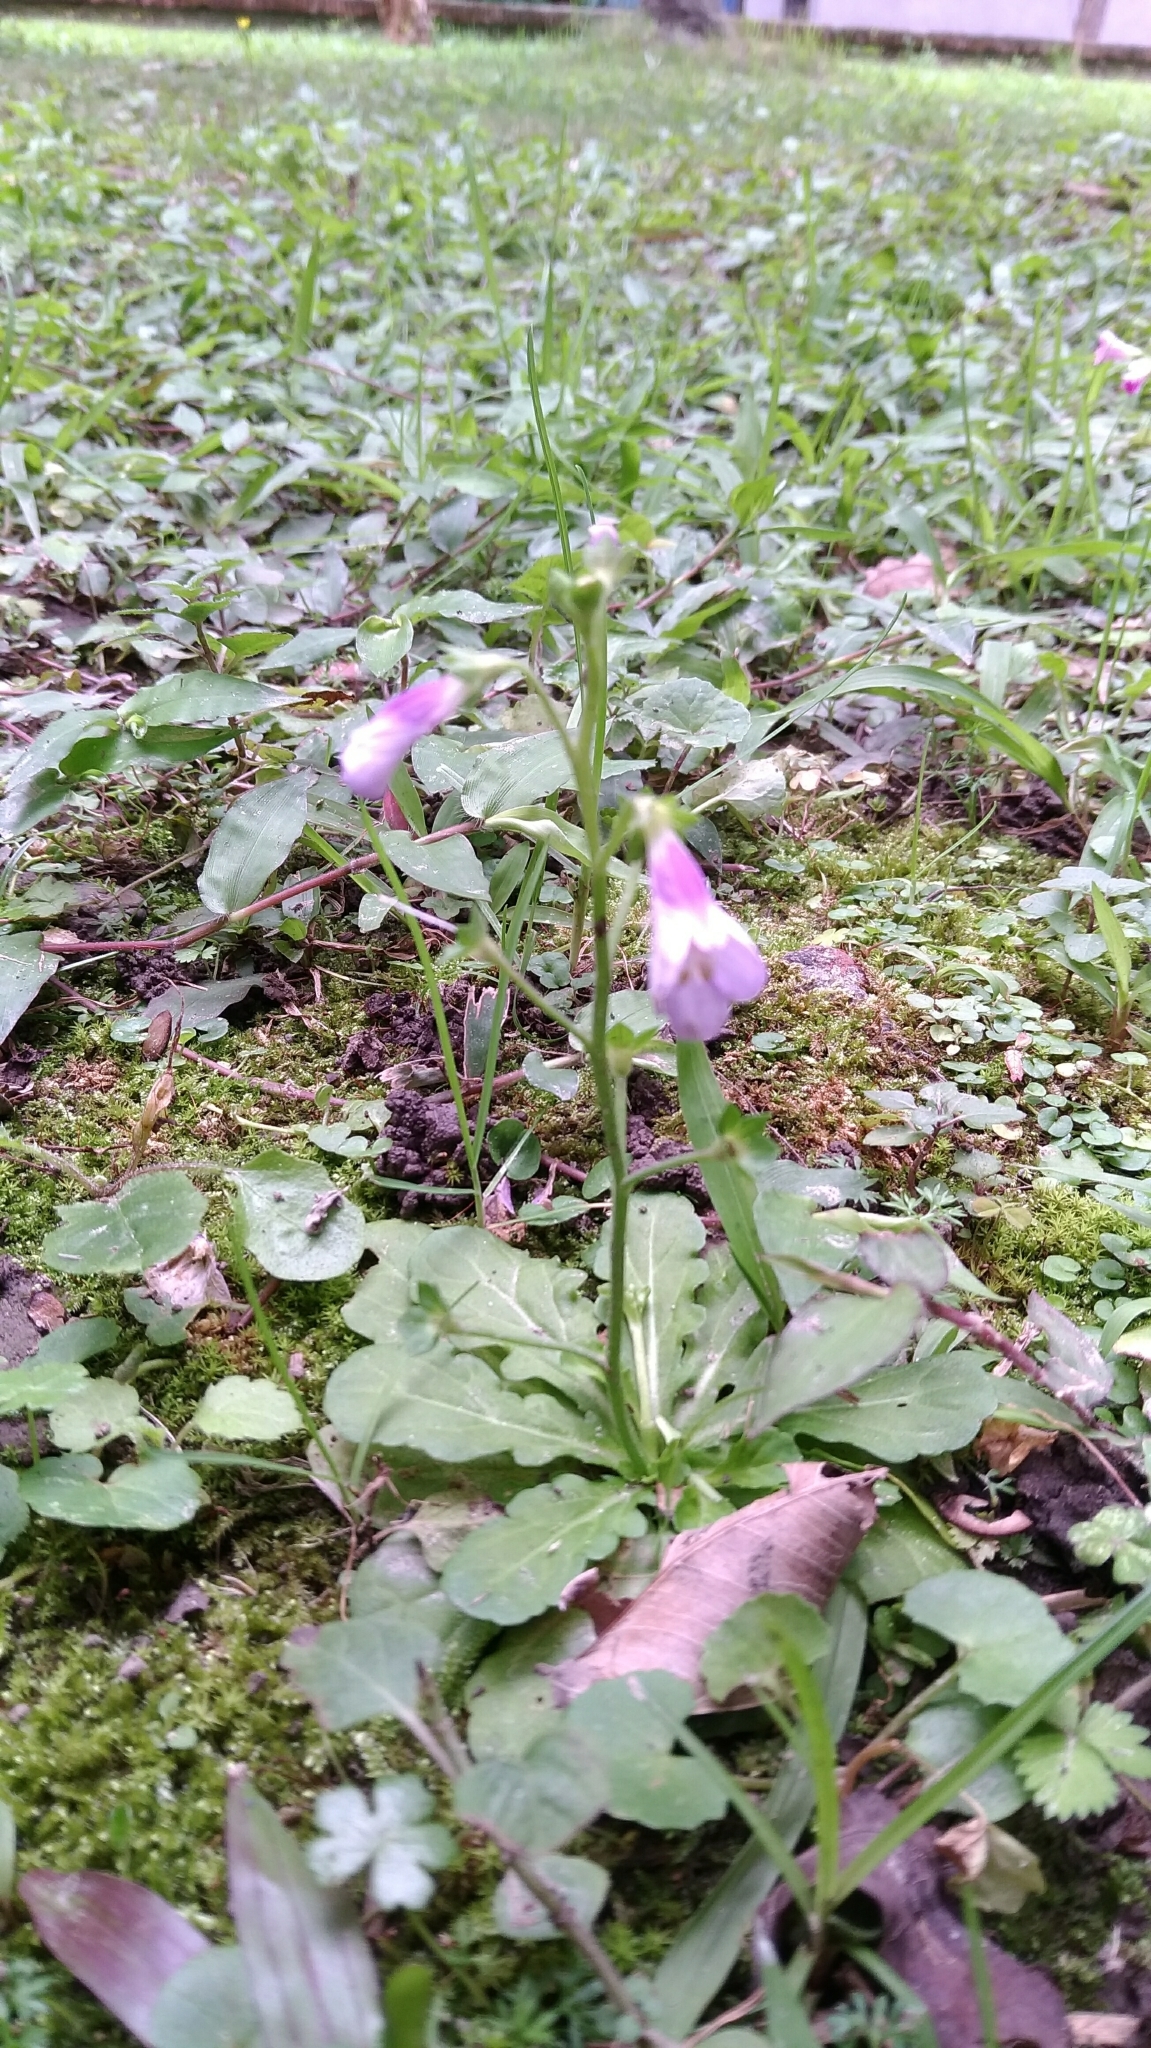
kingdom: Plantae
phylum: Tracheophyta
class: Magnoliopsida
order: Lamiales
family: Mazaceae
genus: Mazus
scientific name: Mazus fauriei
